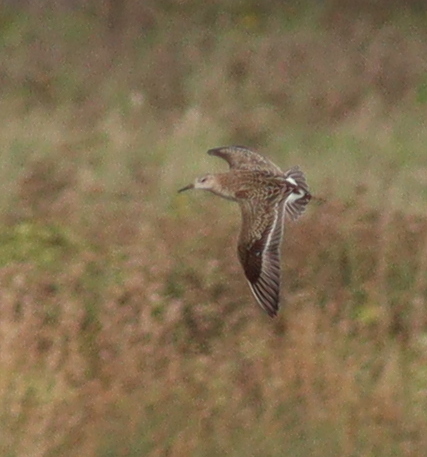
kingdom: Animalia
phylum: Chordata
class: Aves
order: Charadriiformes
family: Scolopacidae
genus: Calidris
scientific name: Calidris pugnax
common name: Ruff
